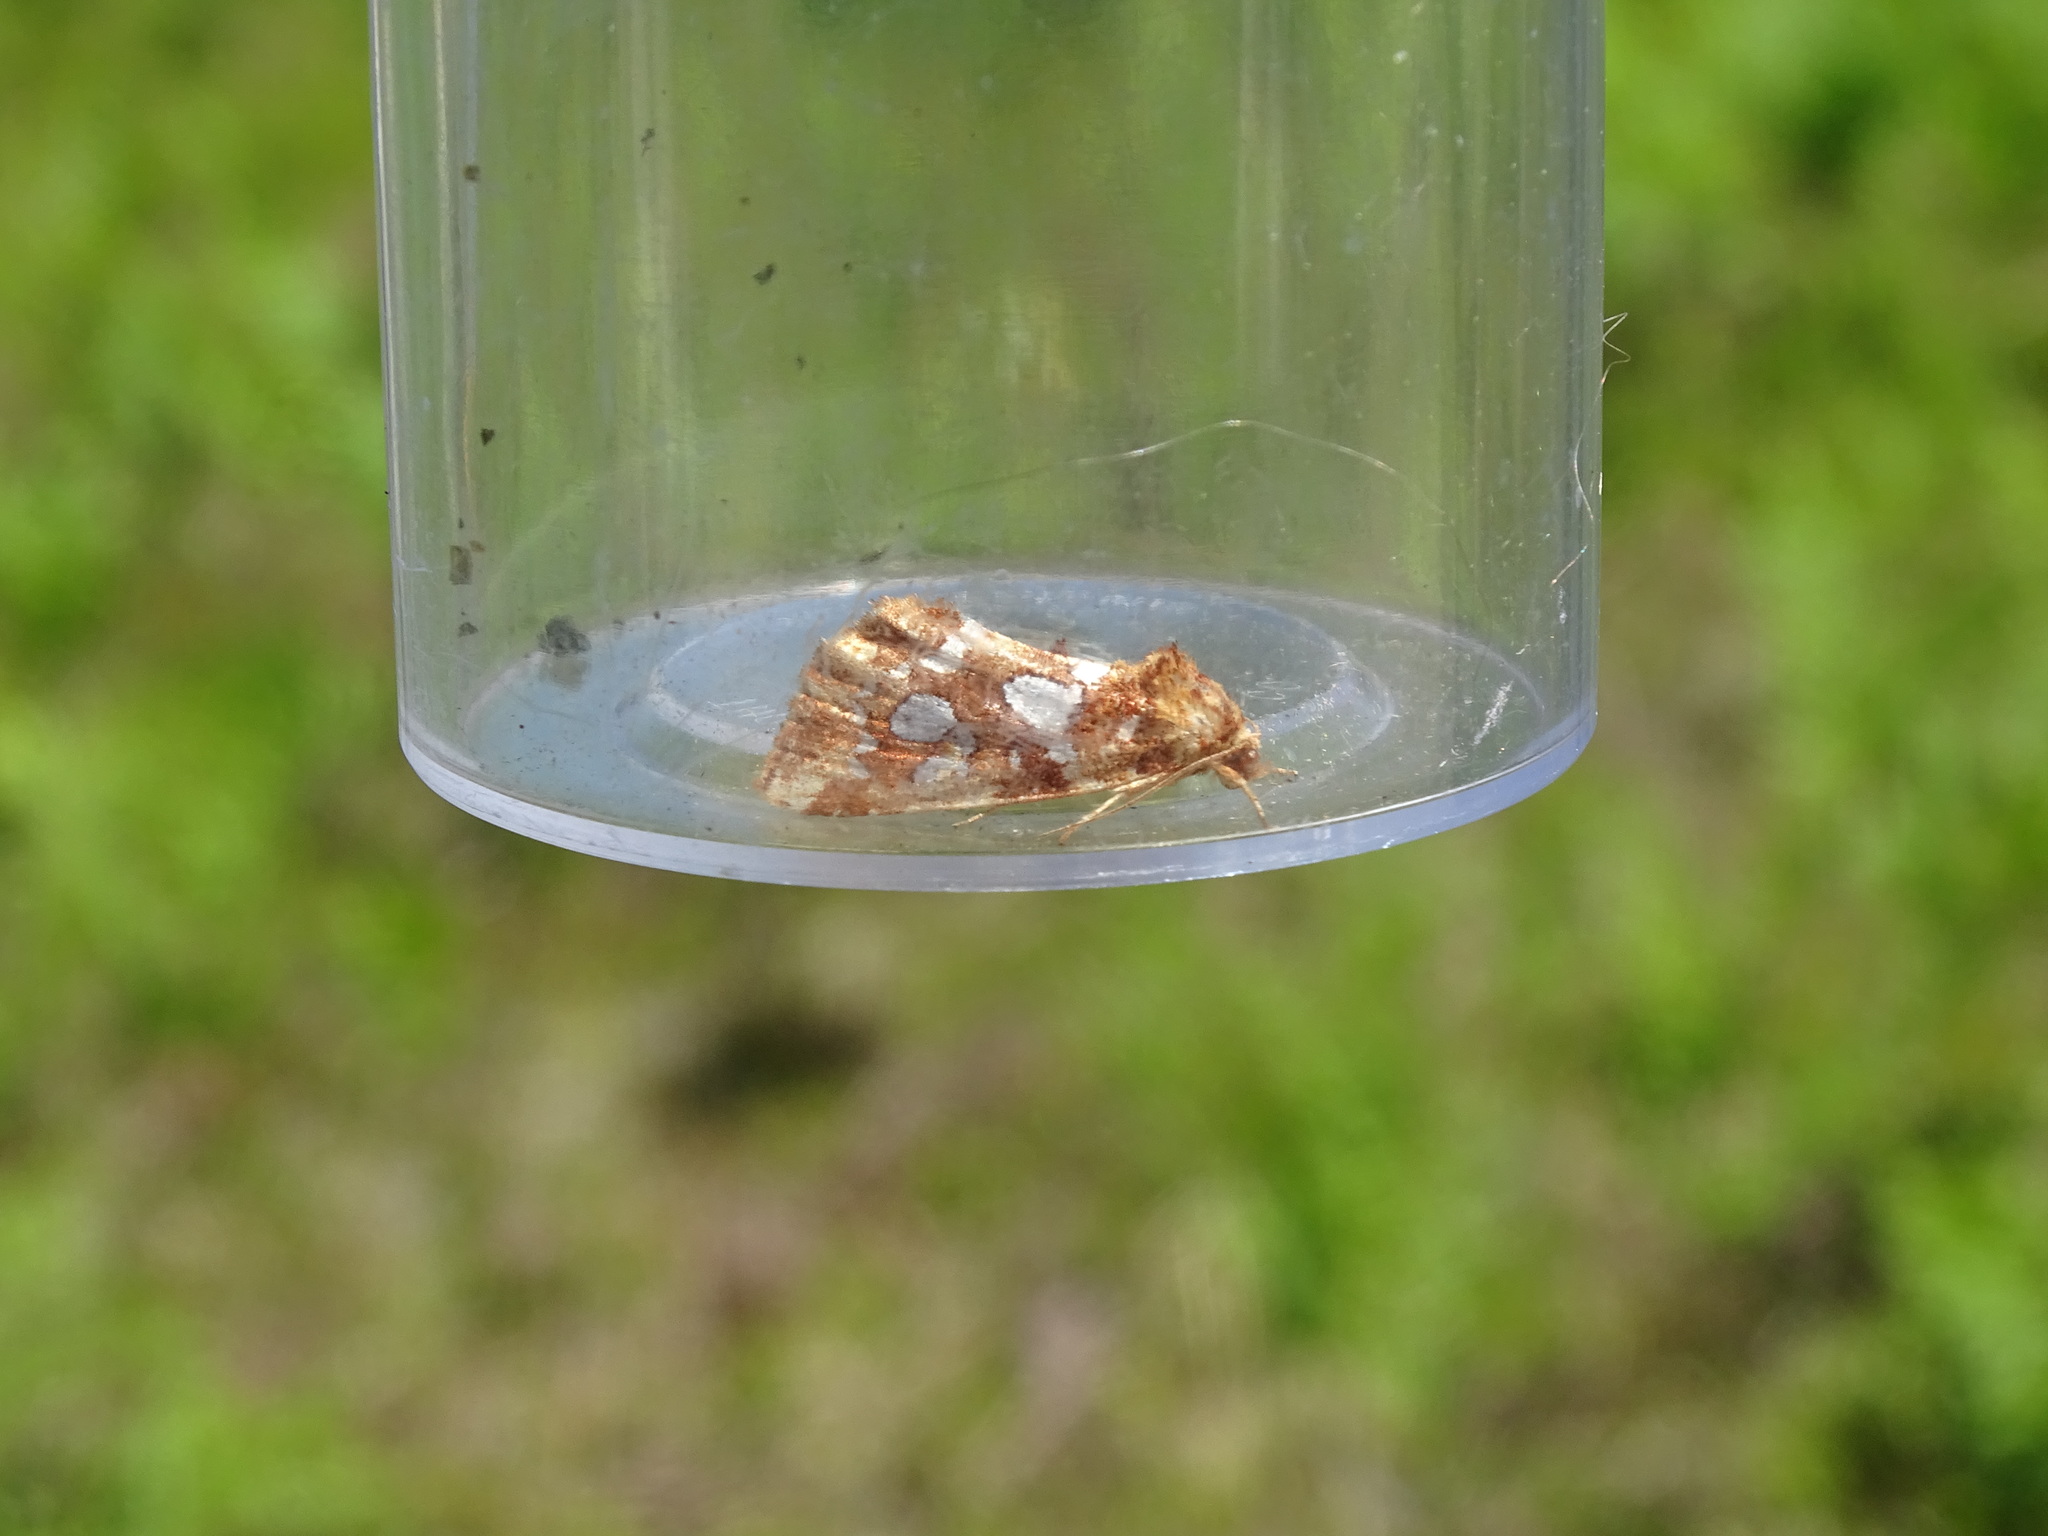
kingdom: Animalia
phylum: Arthropoda
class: Insecta
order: Lepidoptera
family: Noctuidae
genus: Callopistria
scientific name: Callopistria cordata
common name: Silver-spotted fern moth
